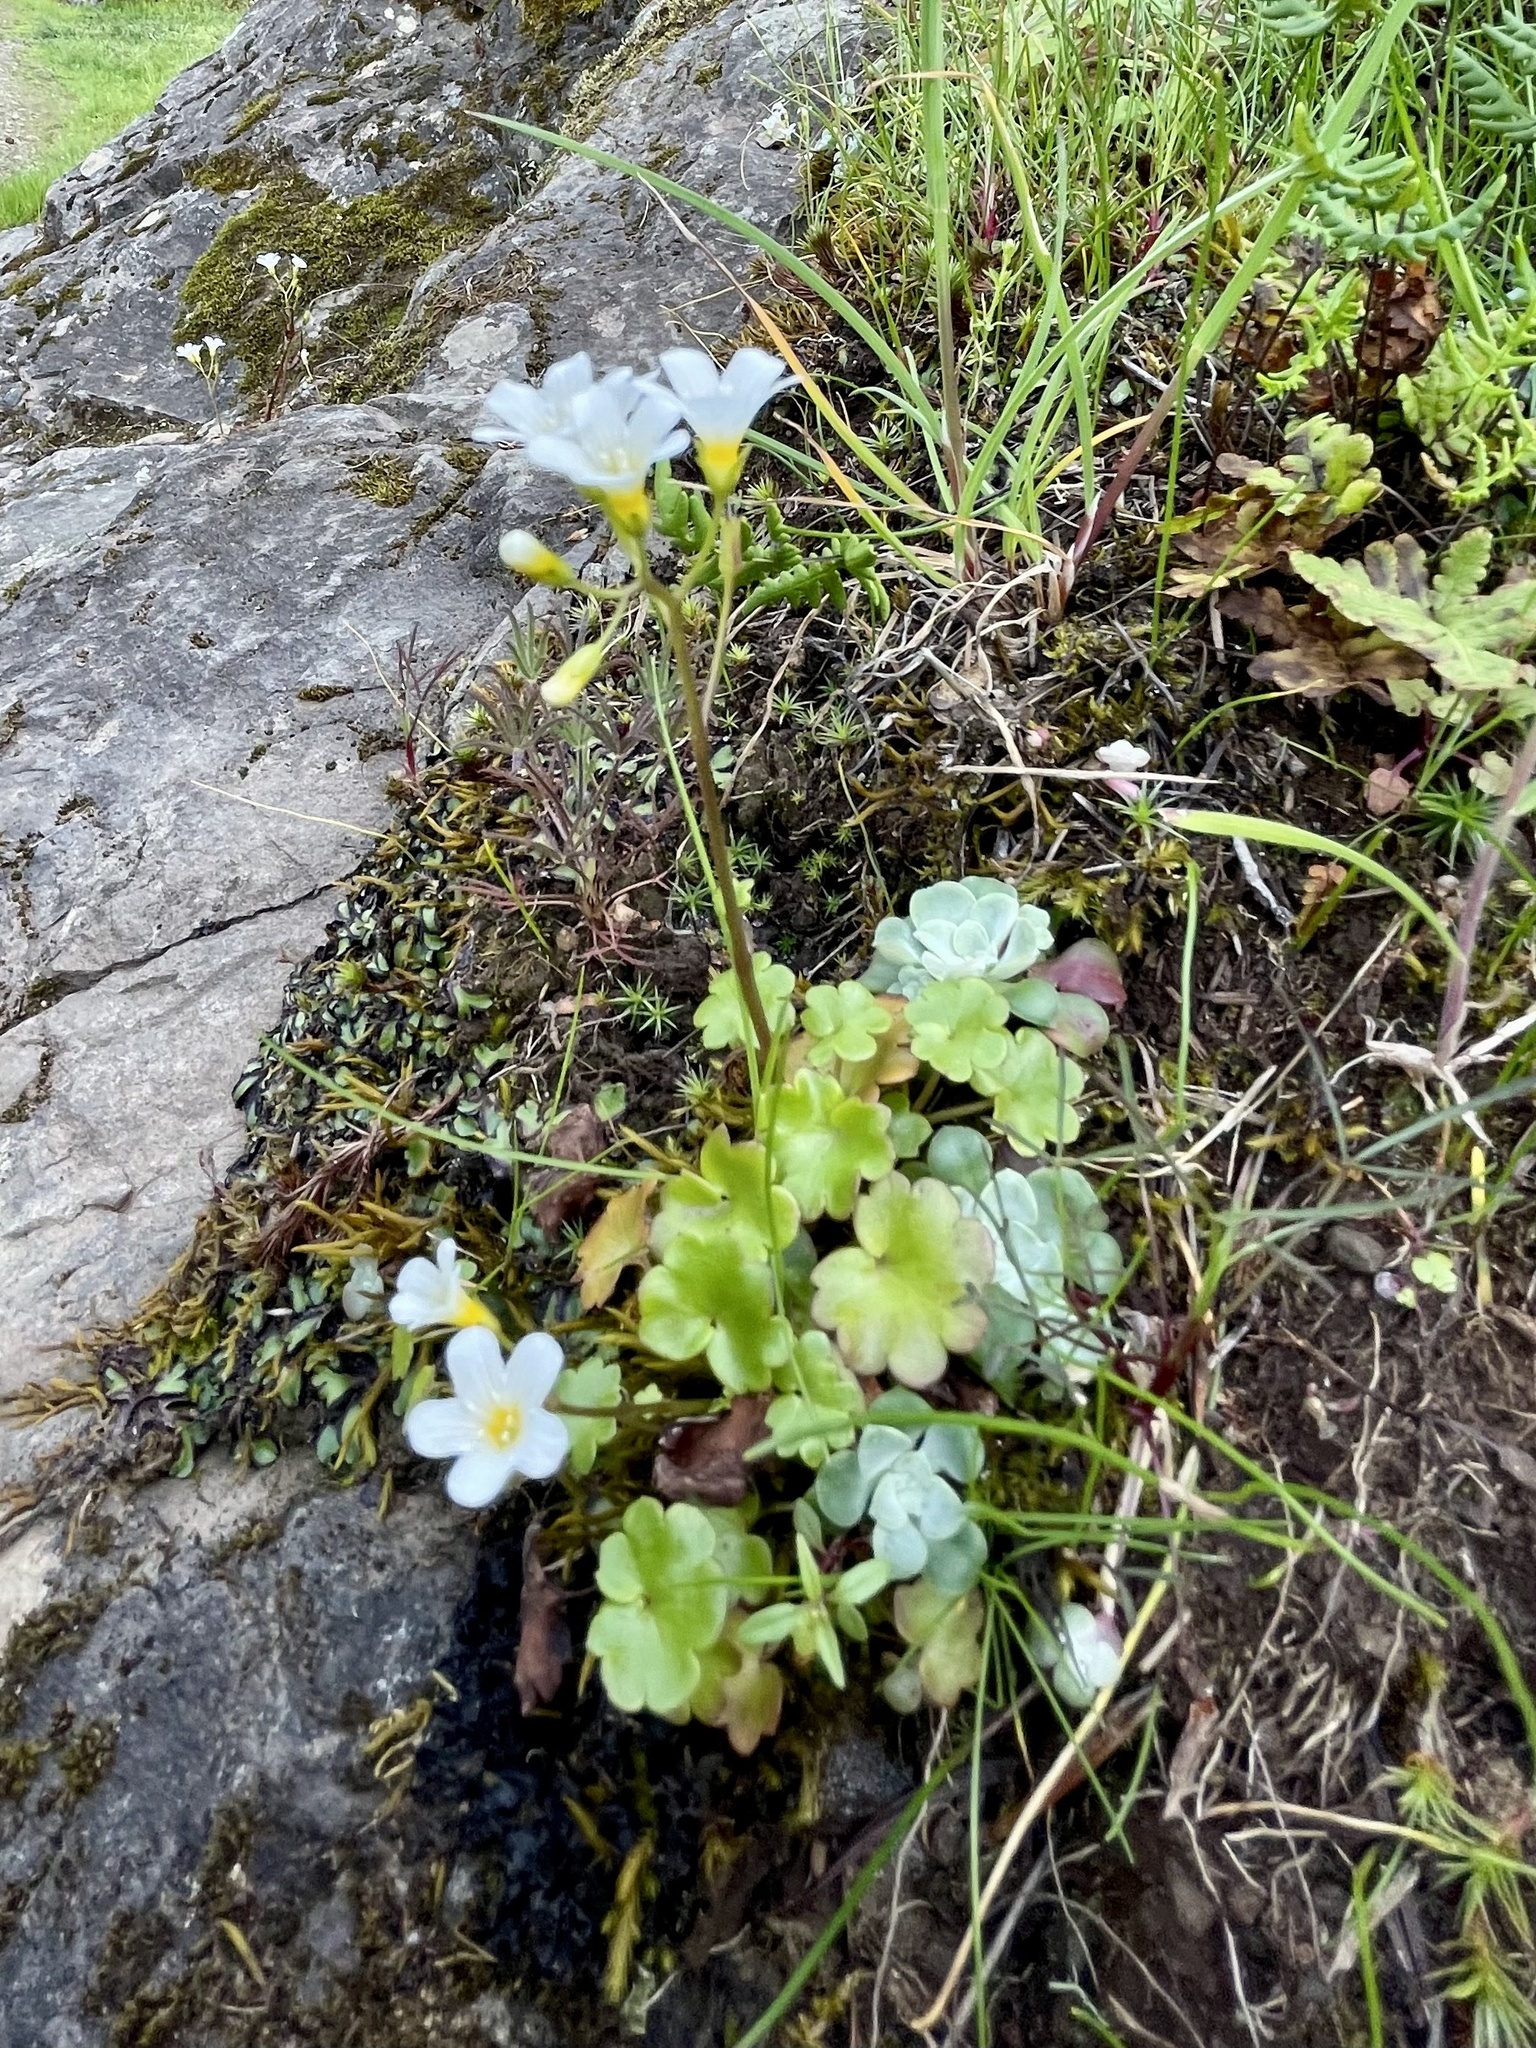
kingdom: Plantae
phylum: Tracheophyta
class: Magnoliopsida
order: Boraginales
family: Hydrophyllaceae
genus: Romanzoffia
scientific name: Romanzoffia californica
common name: California mistmaiden
